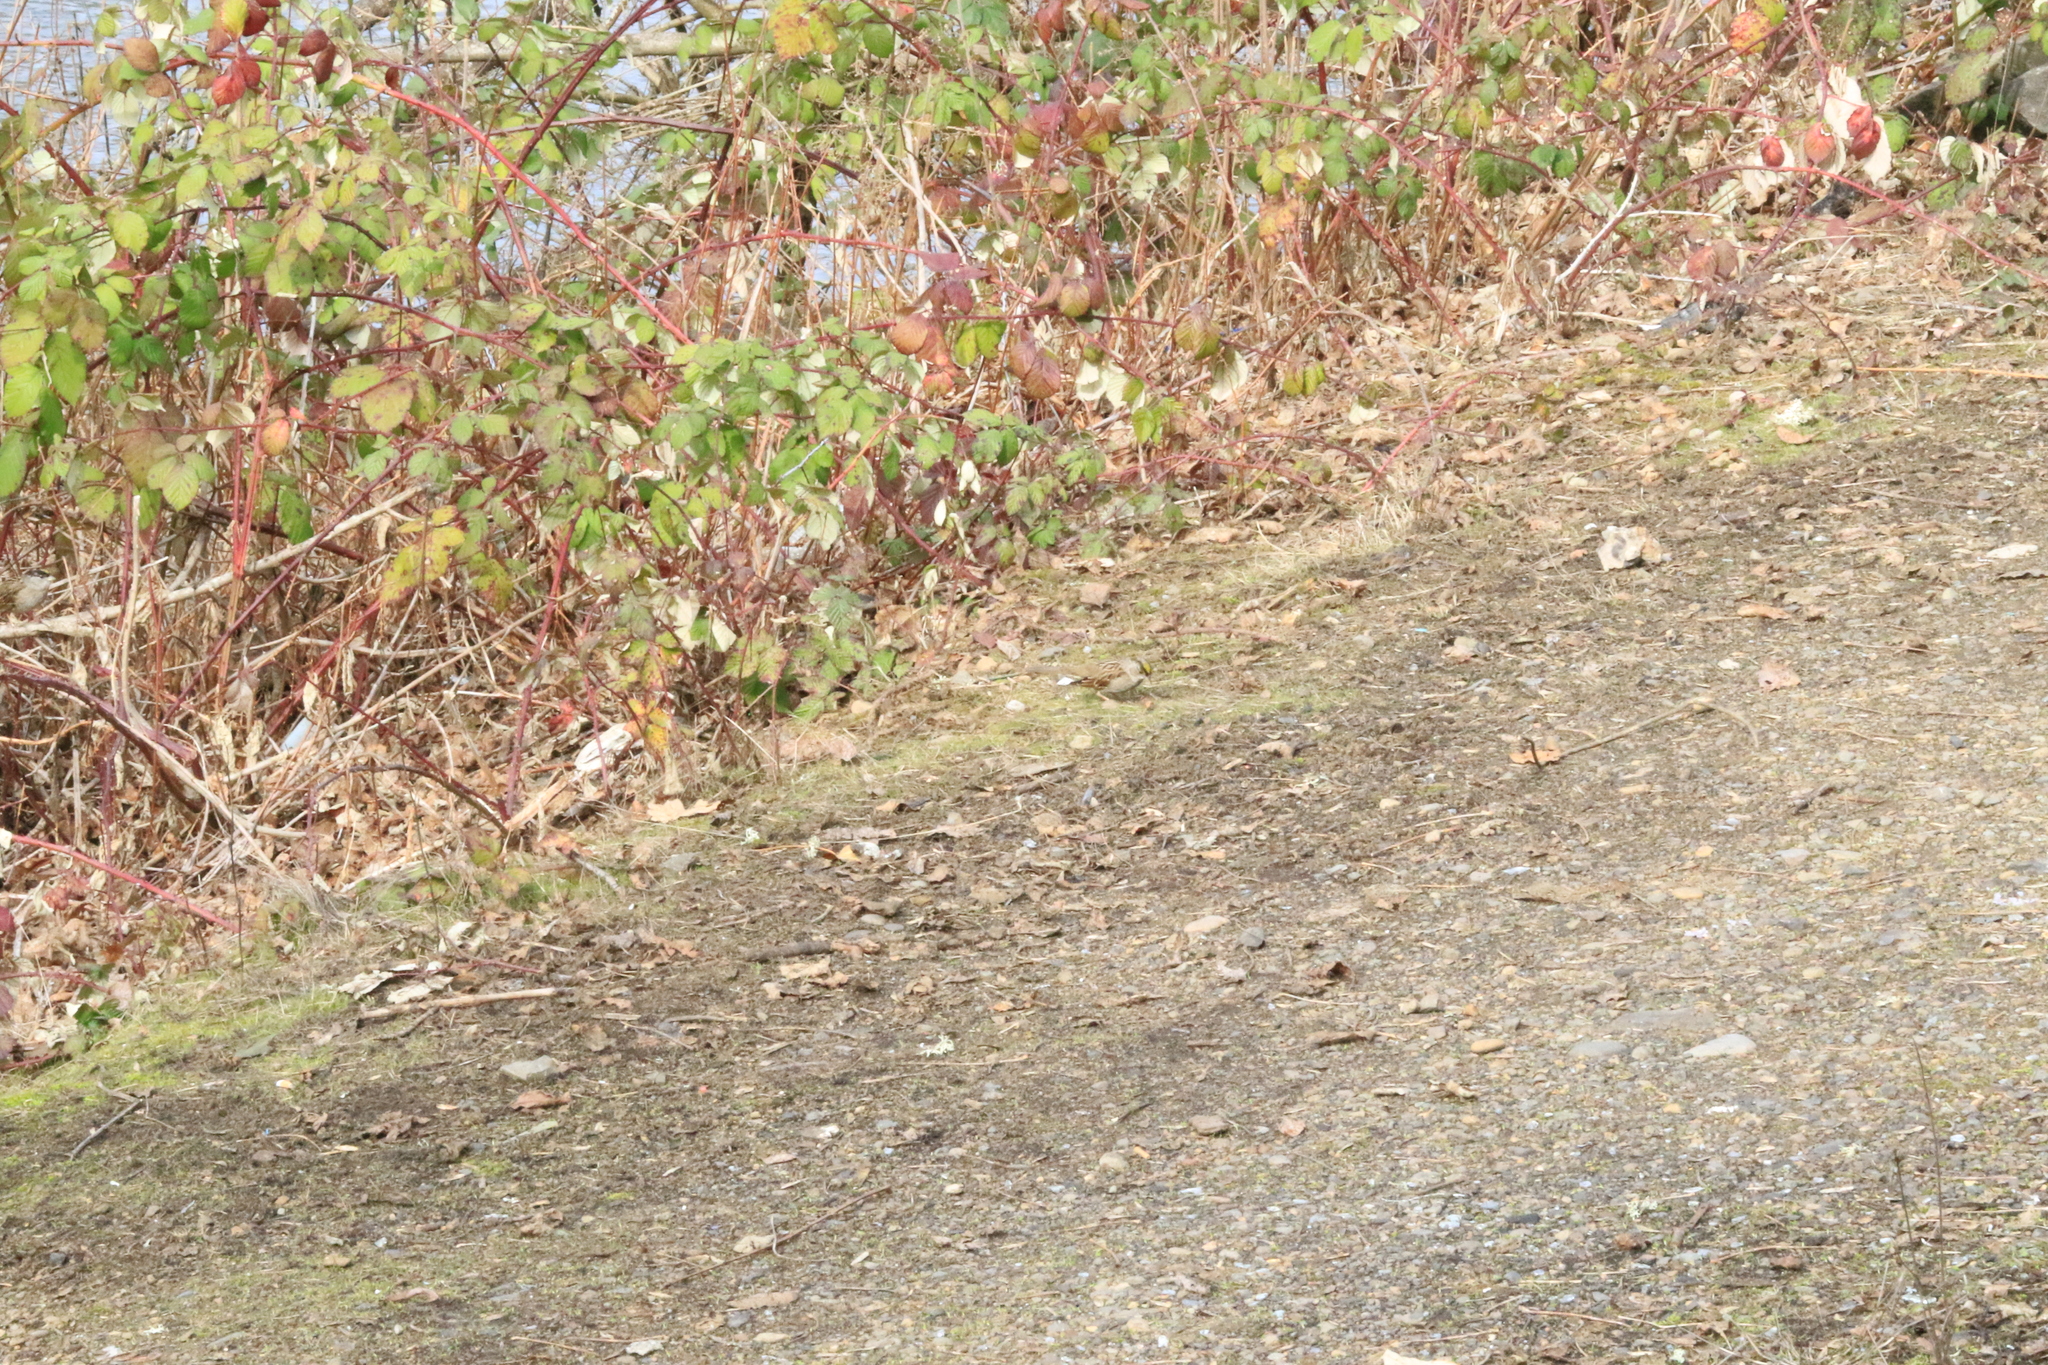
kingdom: Animalia
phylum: Chordata
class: Aves
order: Passeriformes
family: Passerellidae
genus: Zonotrichia
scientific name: Zonotrichia atricapilla
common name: Golden-crowned sparrow
